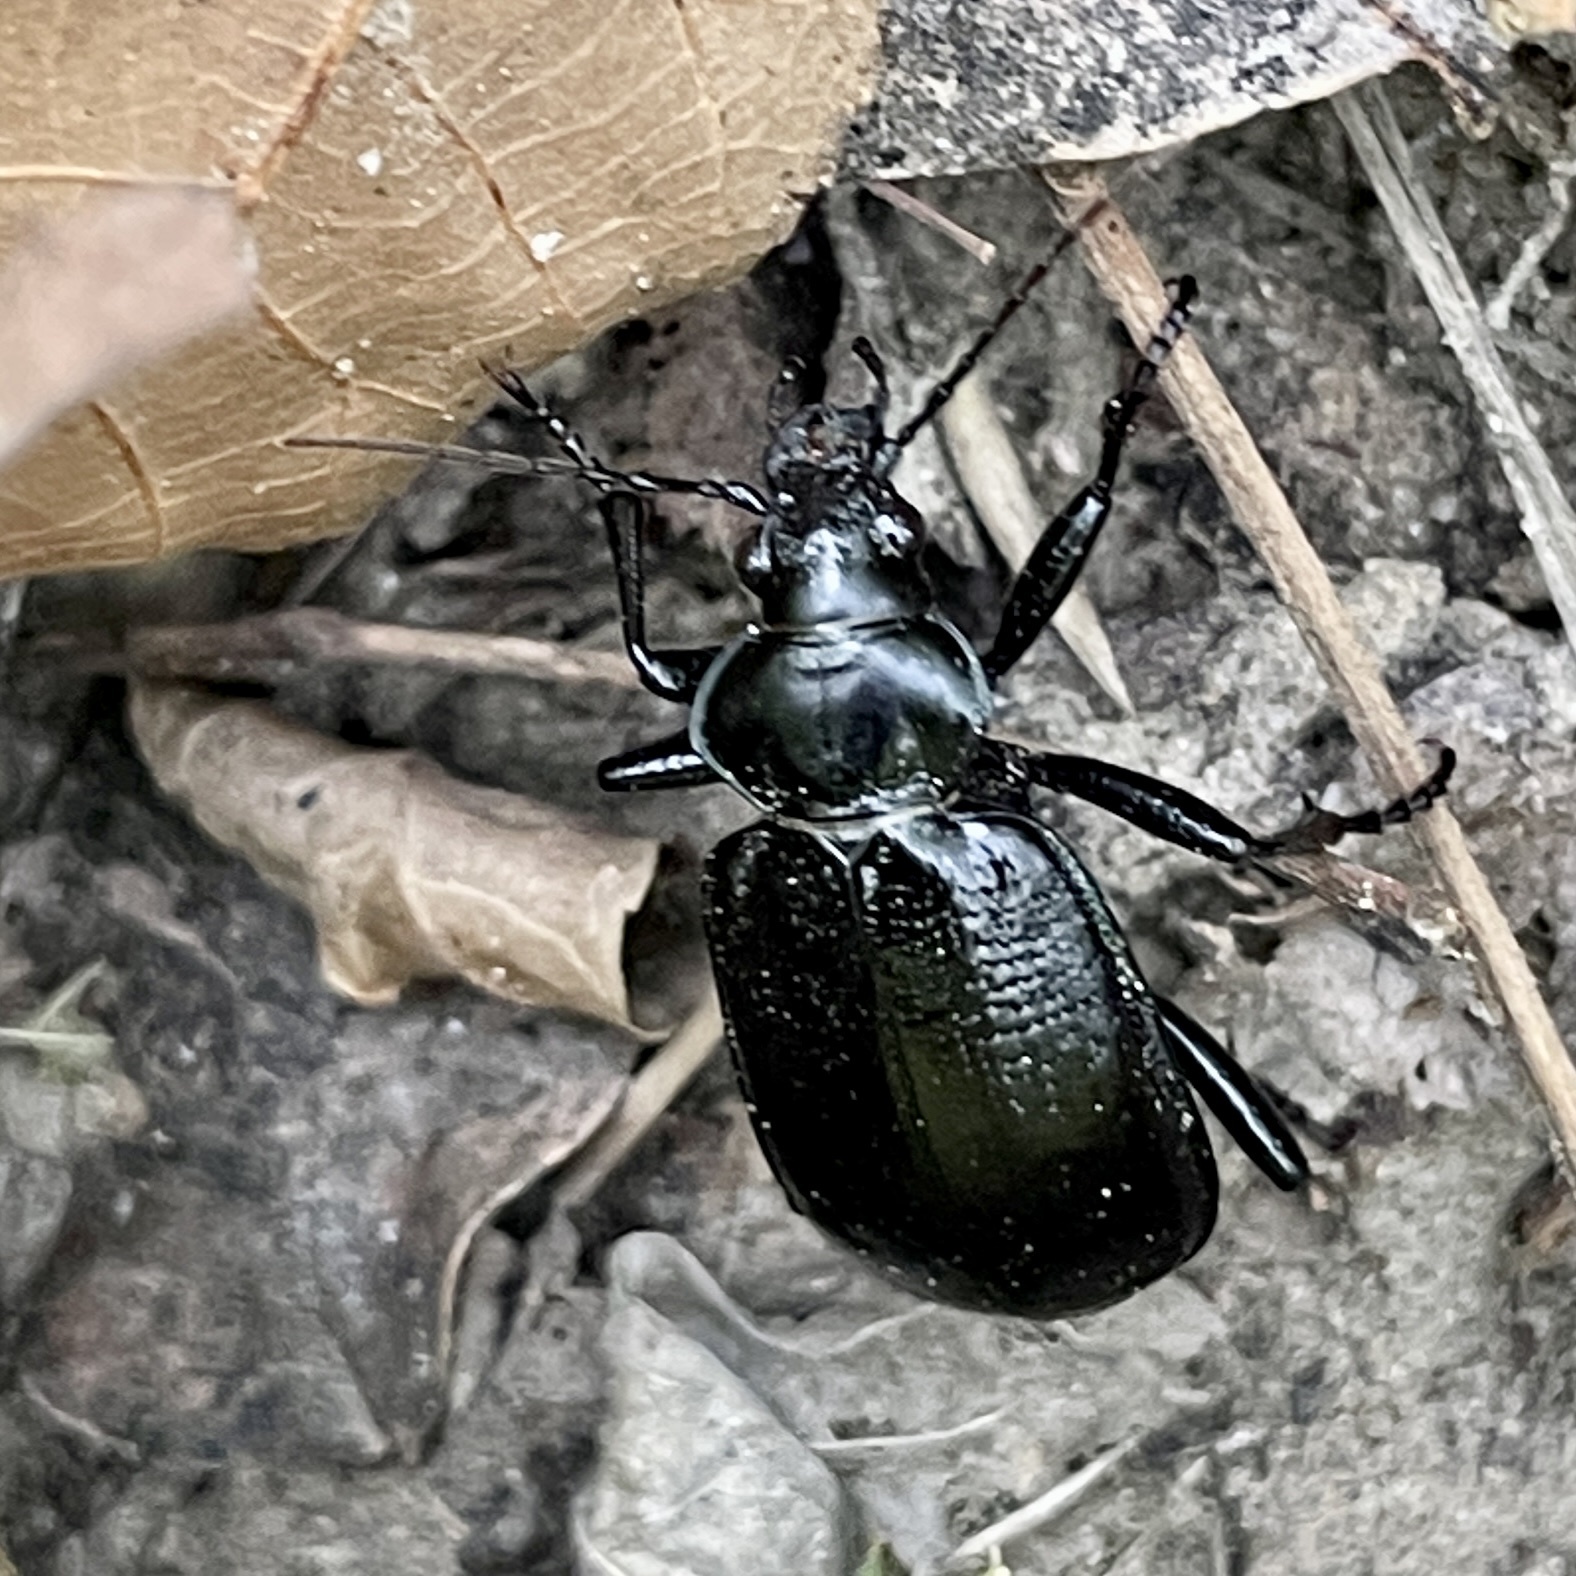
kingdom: Animalia
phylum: Arthropoda
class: Insecta
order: Coleoptera
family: Carabidae
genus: Calosoma
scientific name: Calosoma marginale
